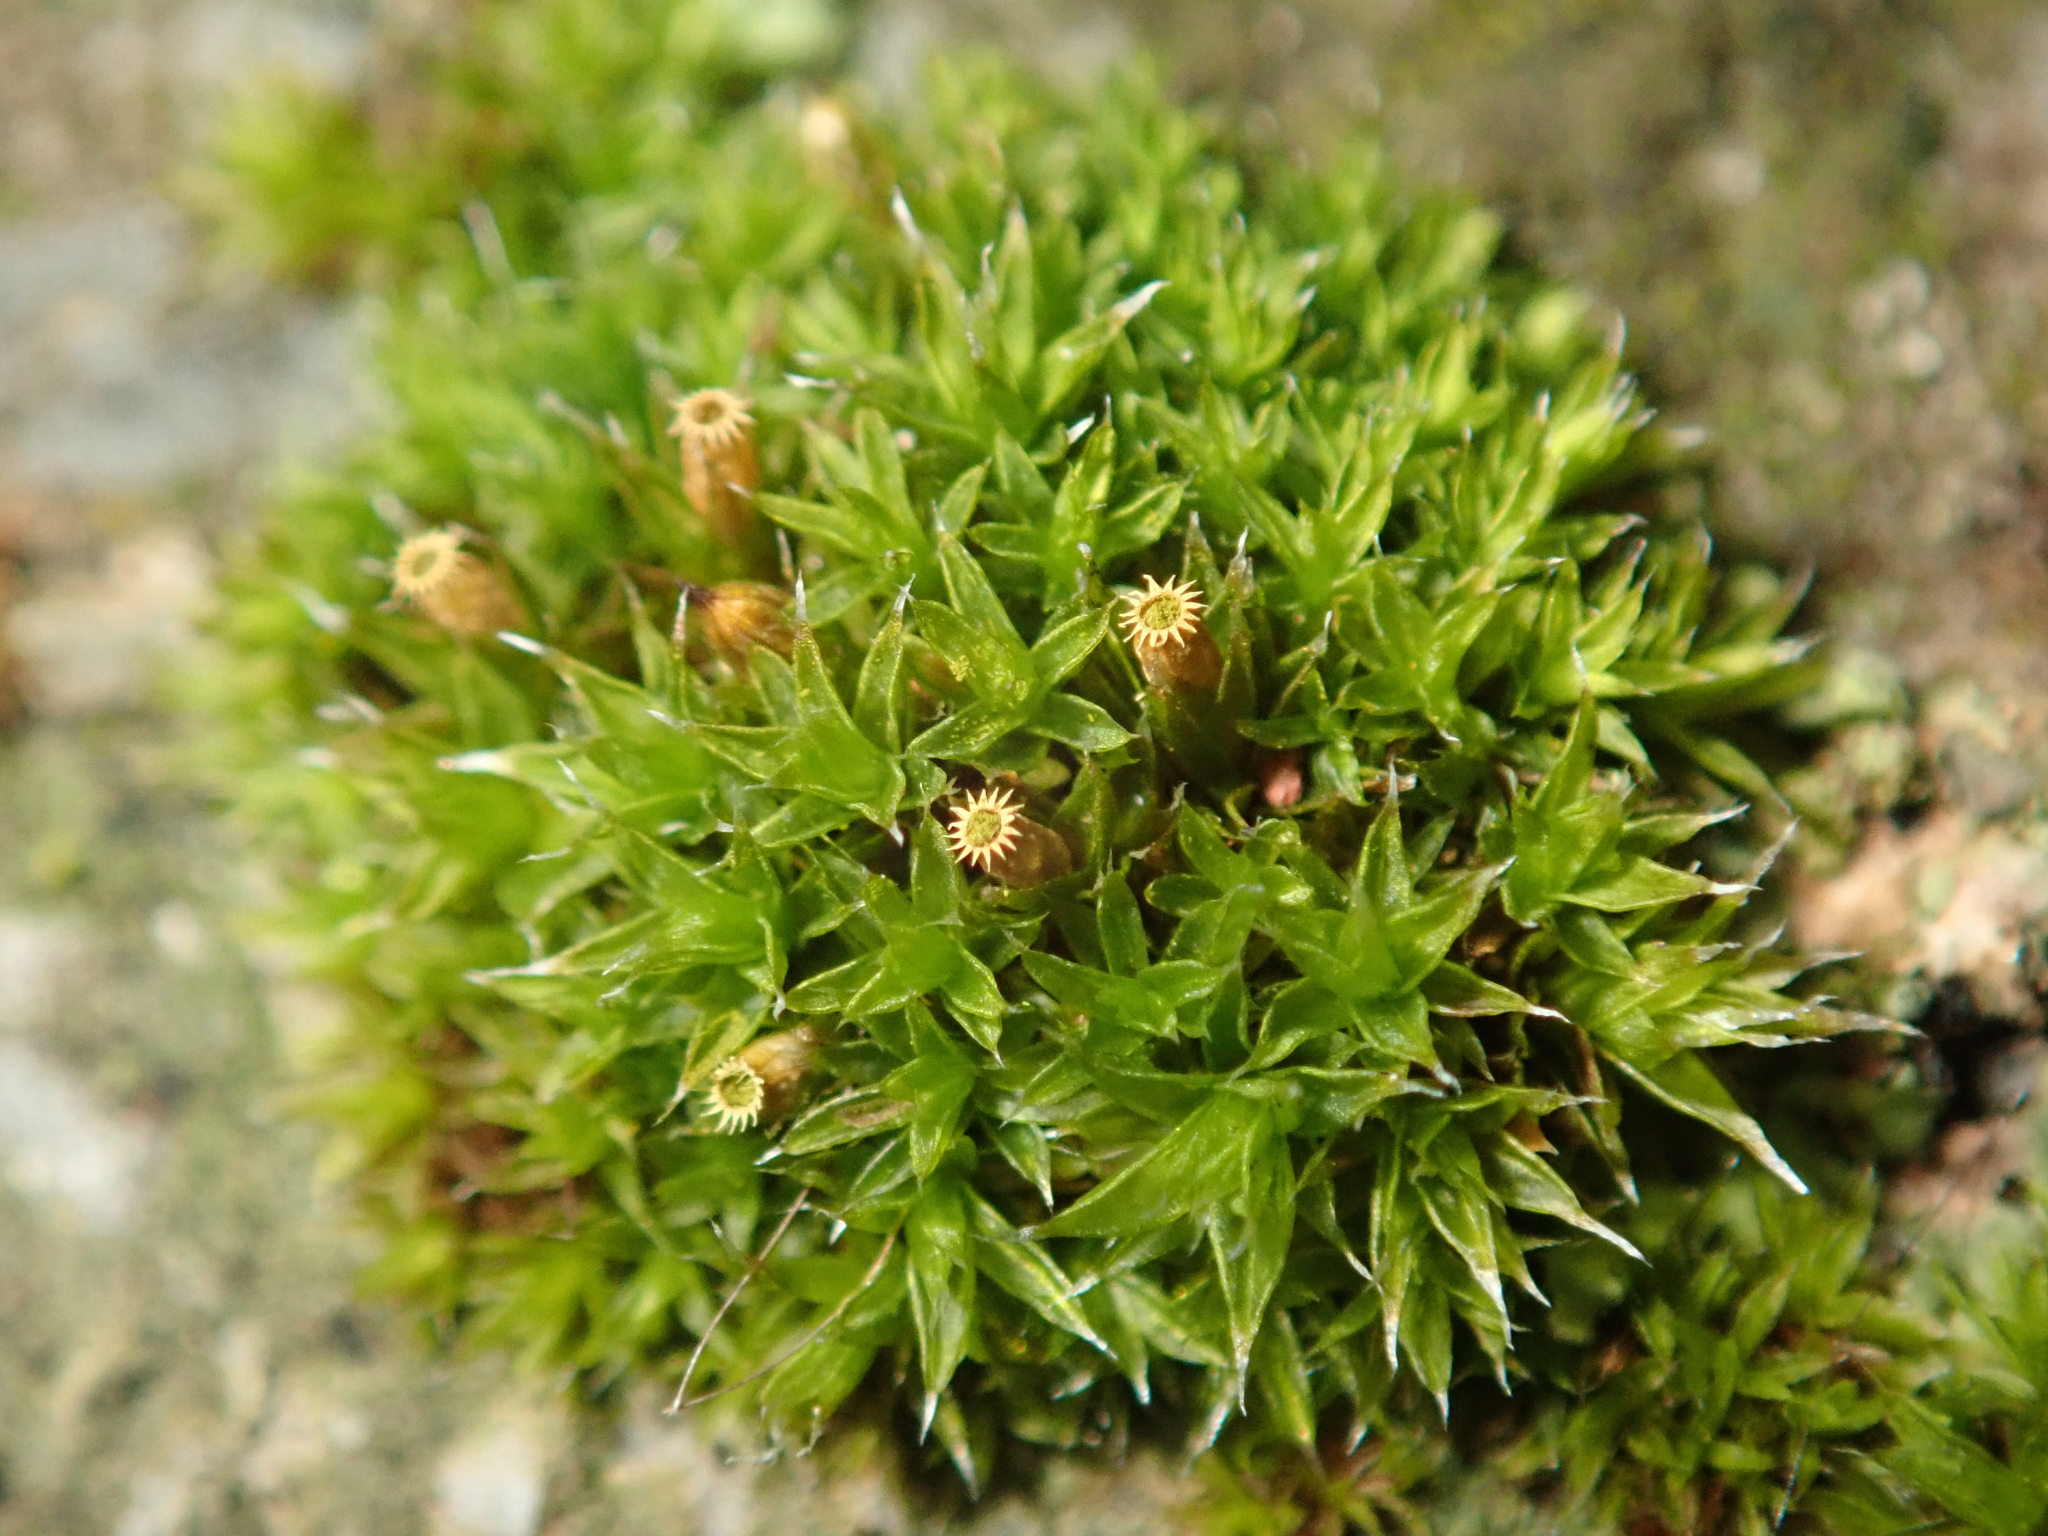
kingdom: Plantae
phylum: Bryophyta
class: Bryopsida
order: Orthotrichales
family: Orthotrichaceae
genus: Orthotrichum
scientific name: Orthotrichum diaphanum
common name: White-tipped bristle-moss
